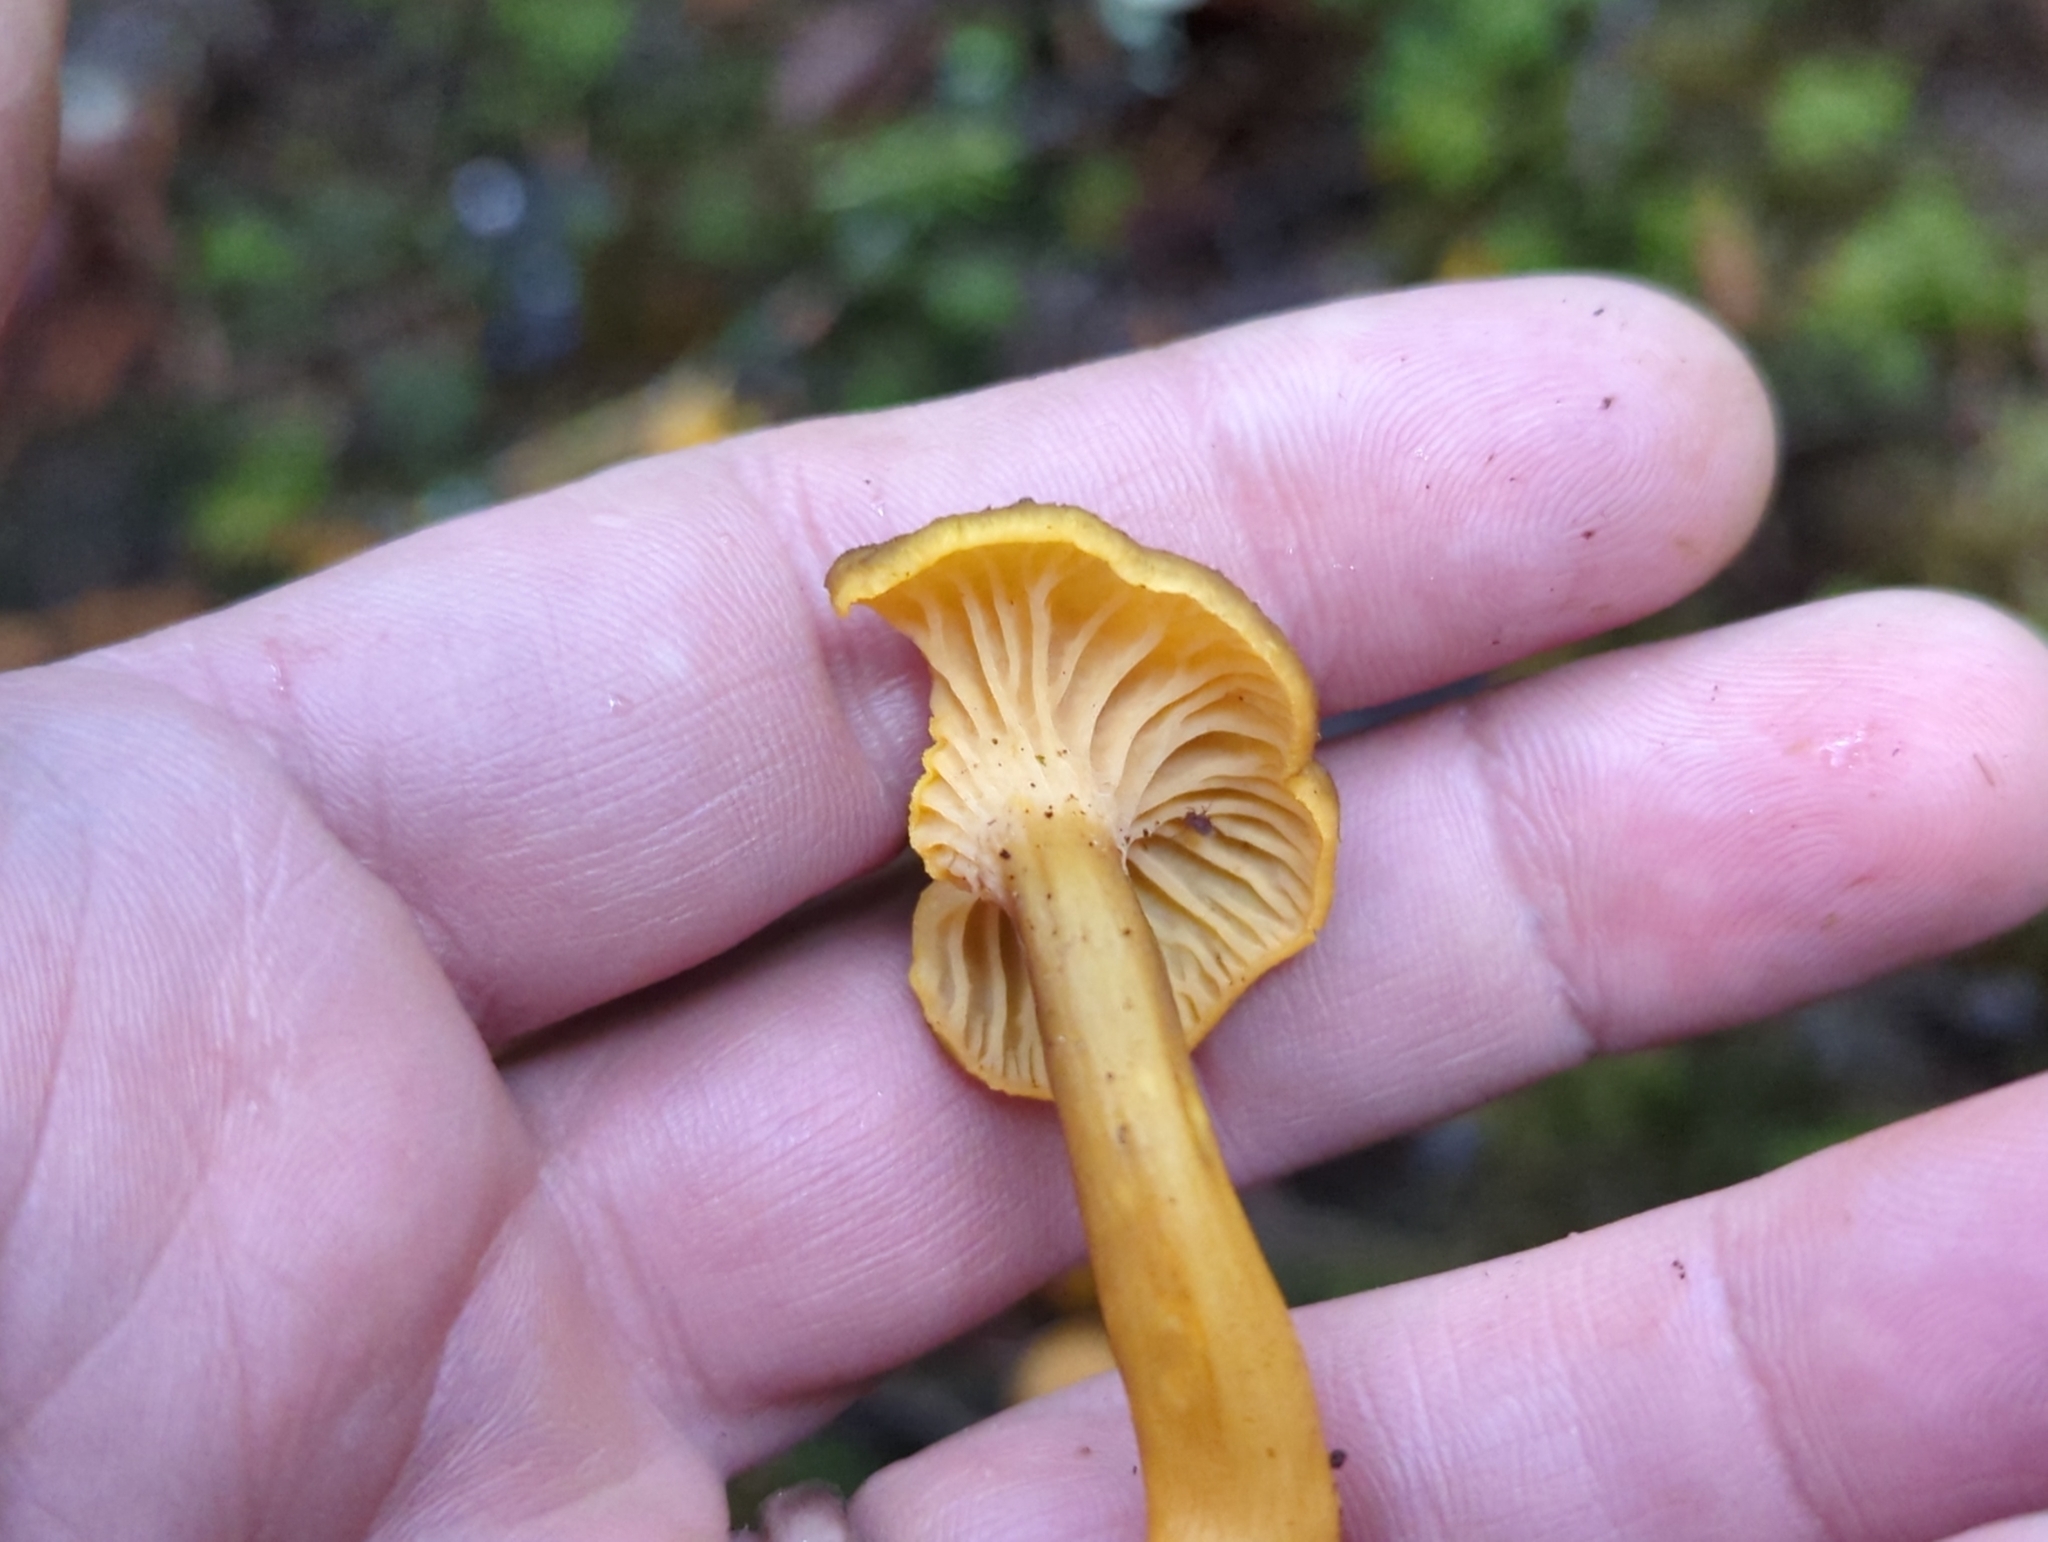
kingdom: Fungi
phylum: Basidiomycota
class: Agaricomycetes
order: Cantharellales
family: Hydnaceae
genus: Craterellus
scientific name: Craterellus tubaeformis
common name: Yellowfoot
